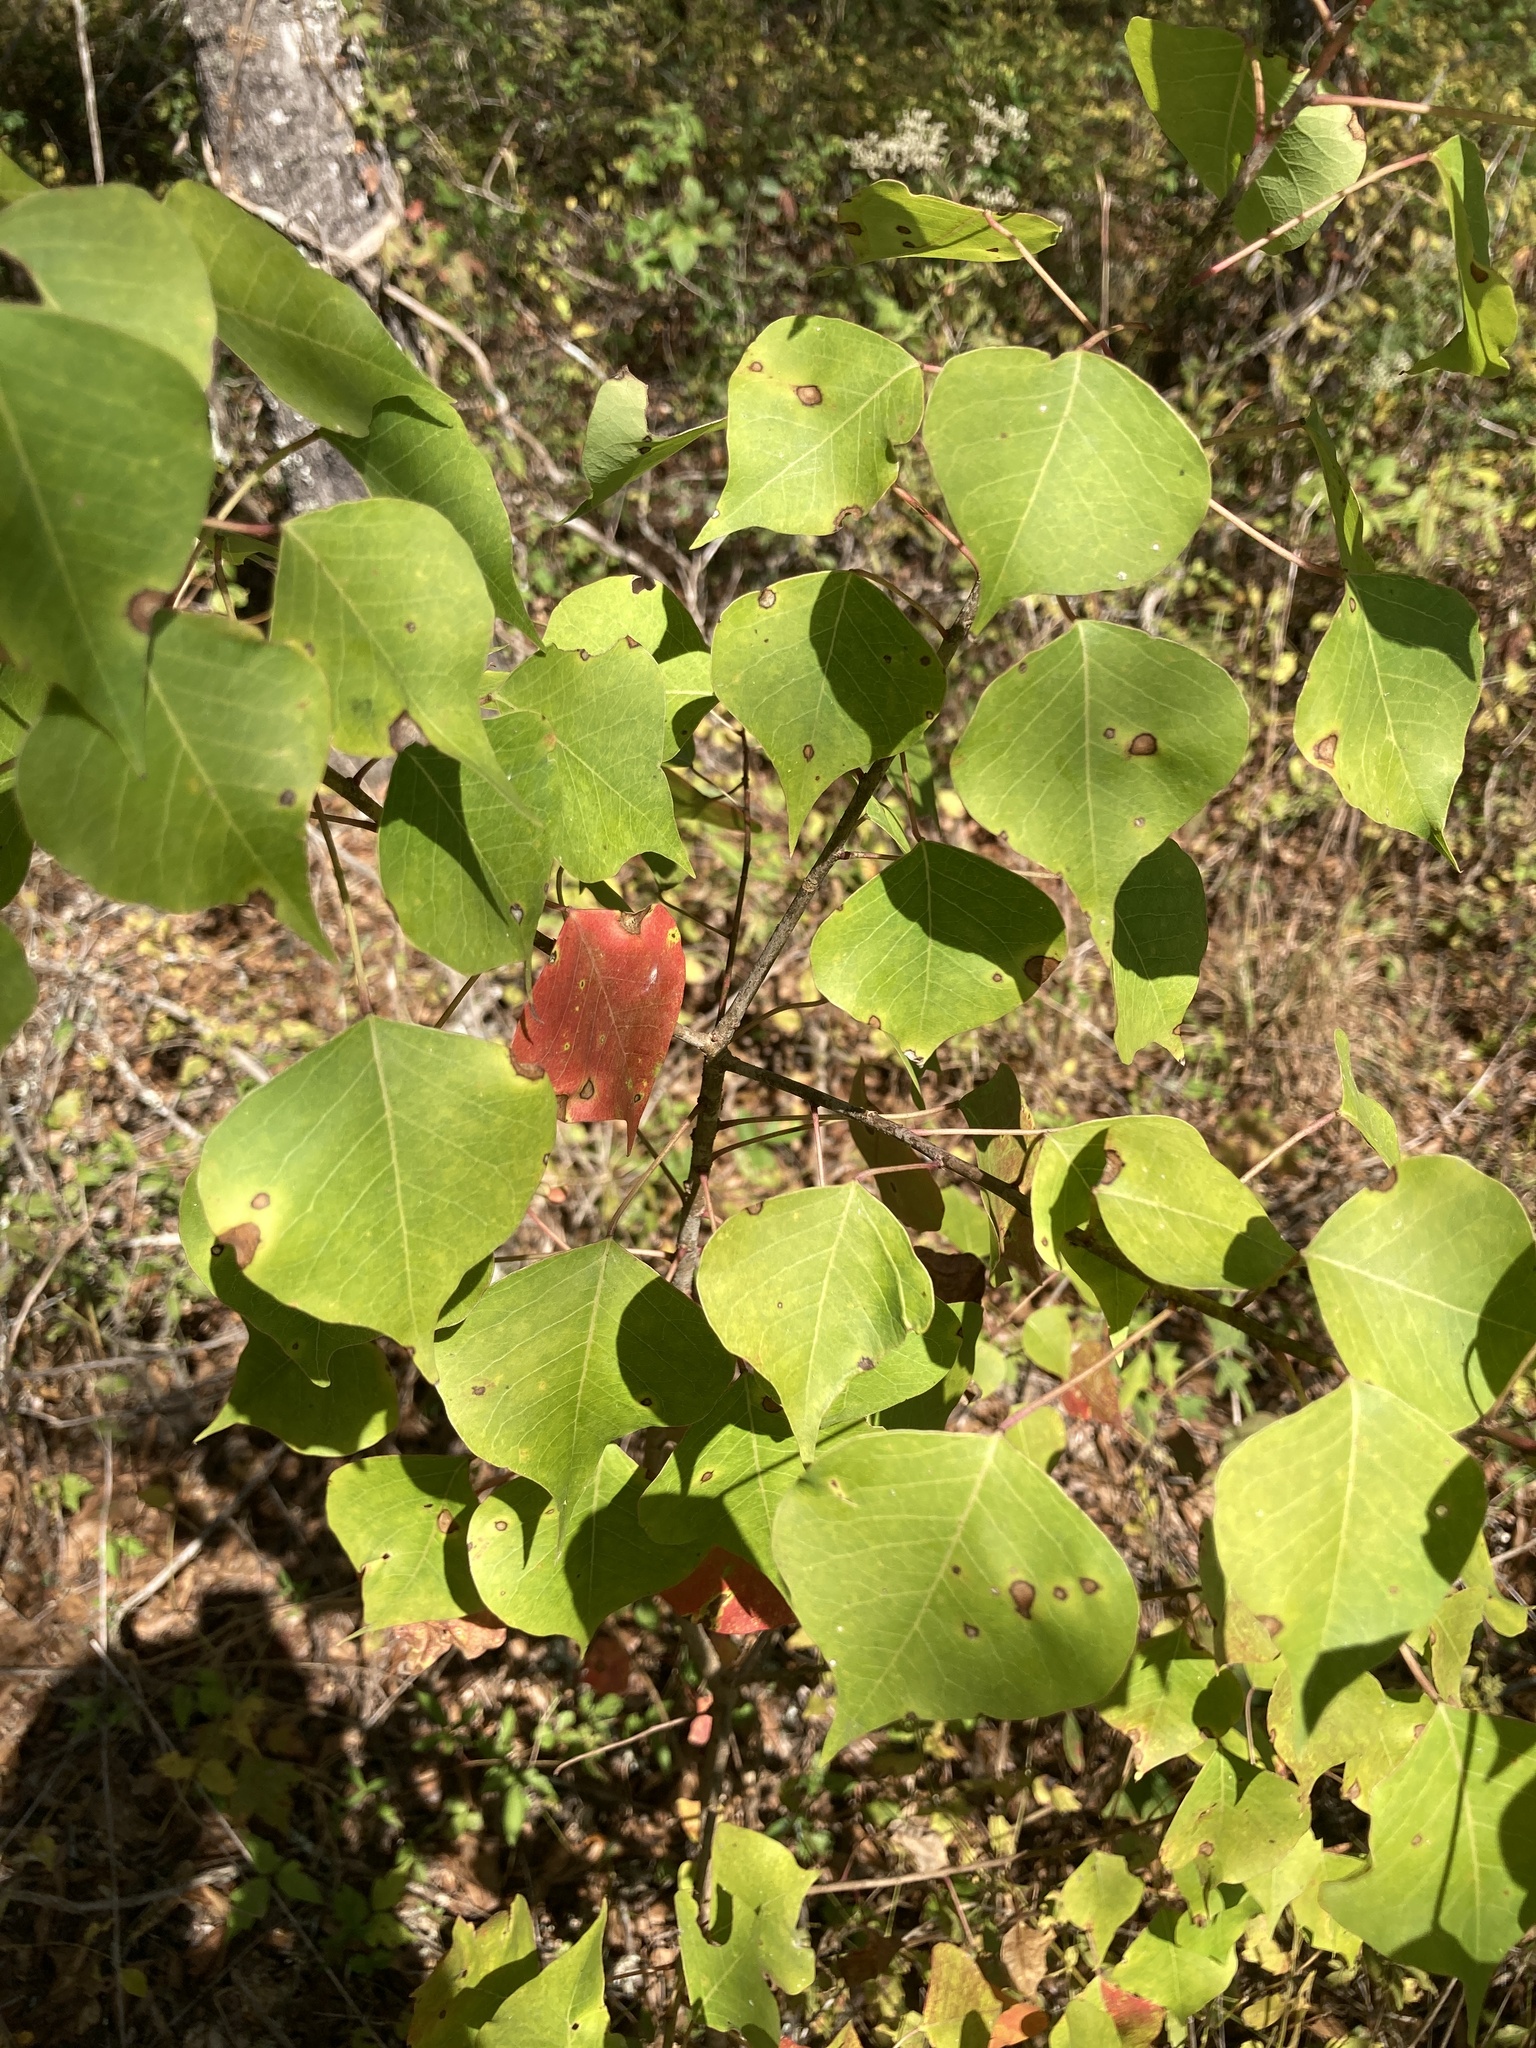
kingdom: Plantae
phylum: Tracheophyta
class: Magnoliopsida
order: Malpighiales
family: Euphorbiaceae
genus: Triadica
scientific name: Triadica sebifera
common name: Chinese tallow
